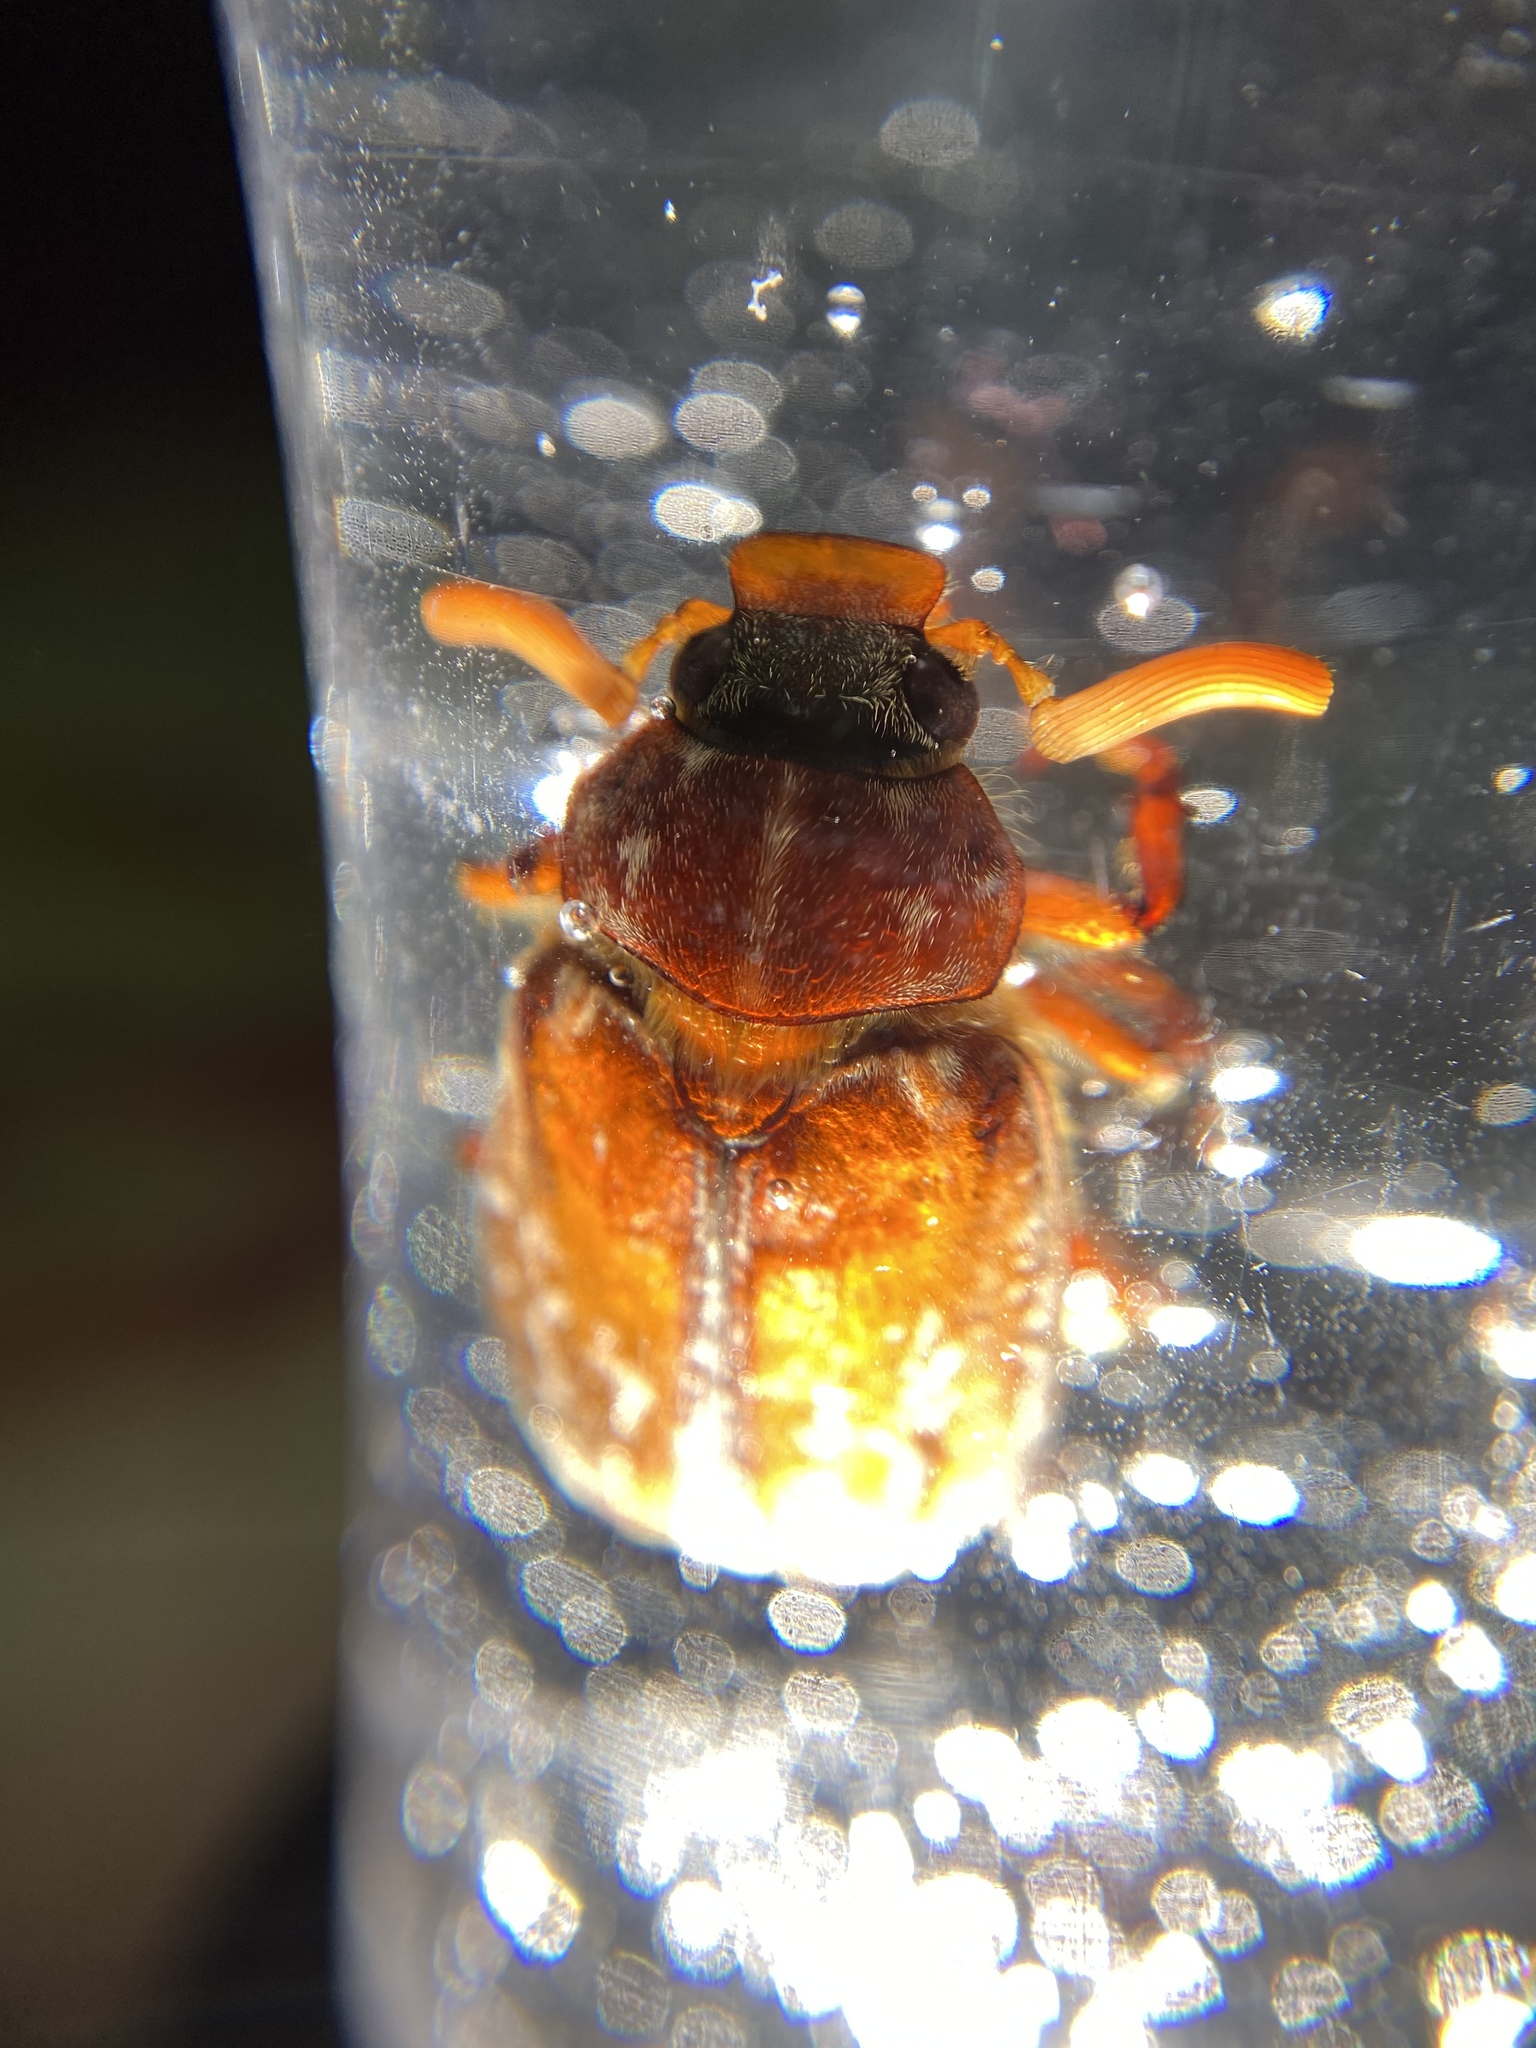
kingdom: Animalia
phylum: Arthropoda
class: Insecta
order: Coleoptera
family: Scarabaeidae
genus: Polyphylla
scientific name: Polyphylla variolosa
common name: Variegated june beetle
